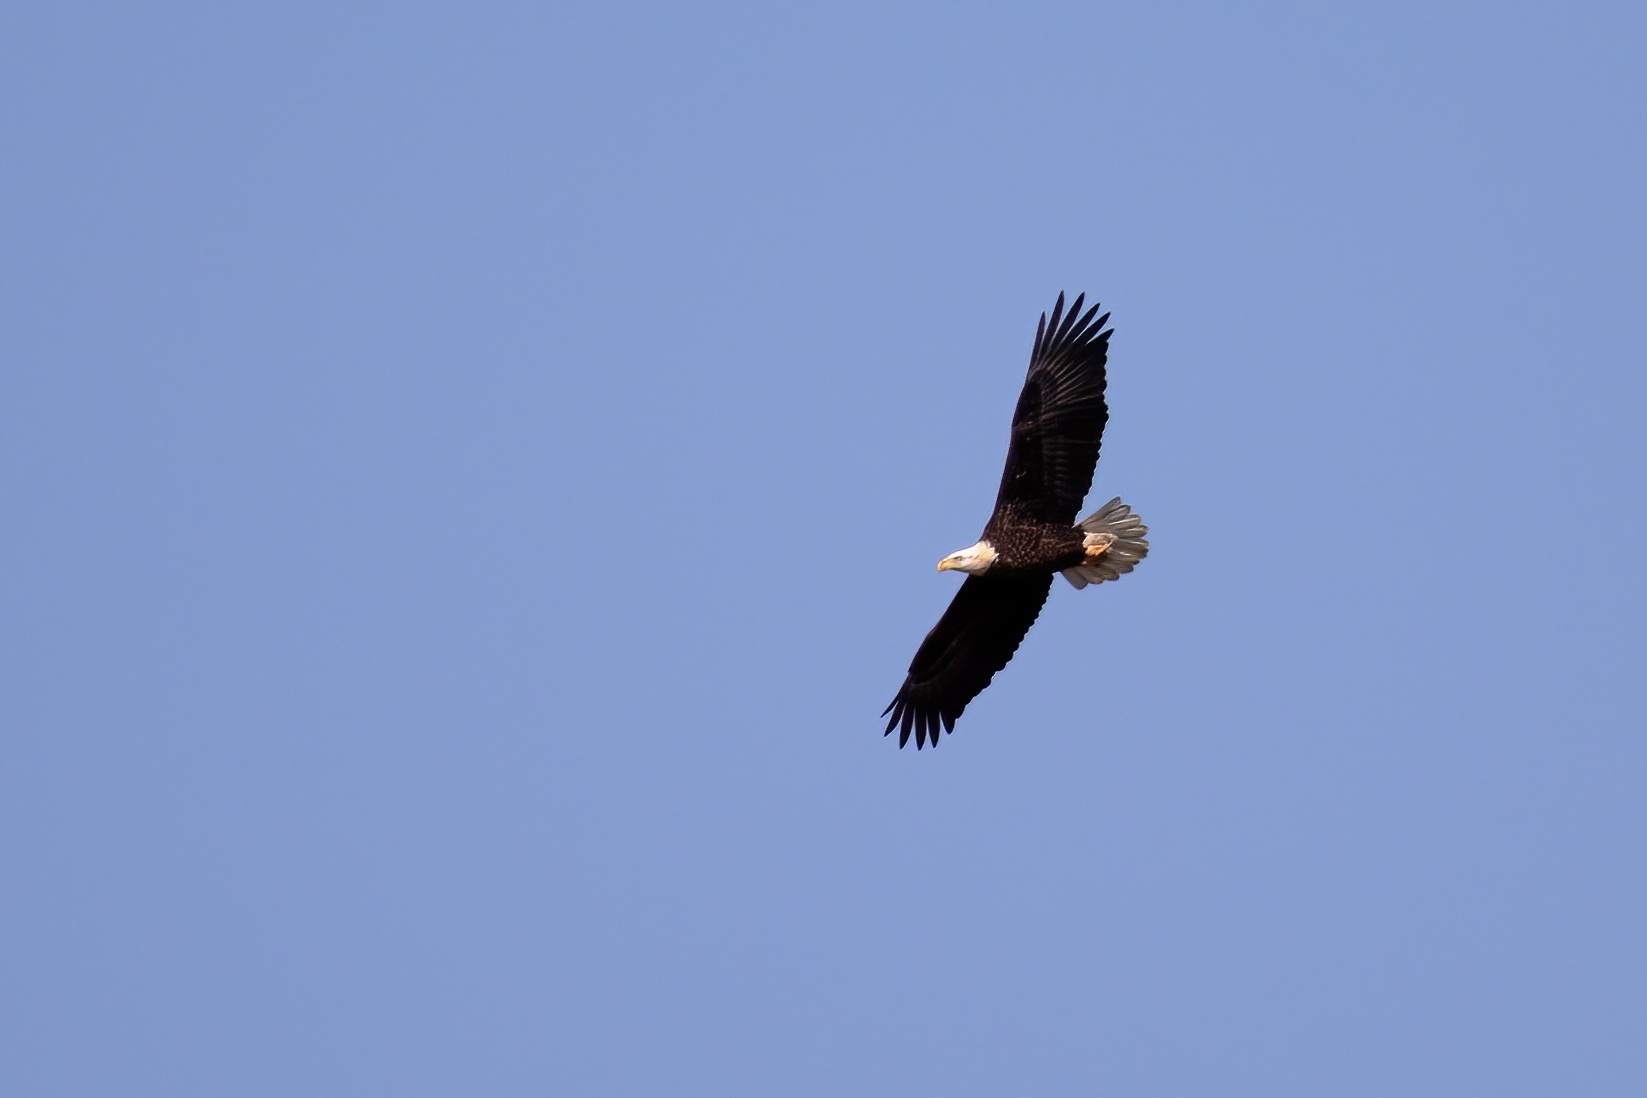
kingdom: Animalia
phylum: Chordata
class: Aves
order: Accipitriformes
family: Accipitridae
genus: Haliaeetus
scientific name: Haliaeetus leucocephalus
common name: Bald eagle
